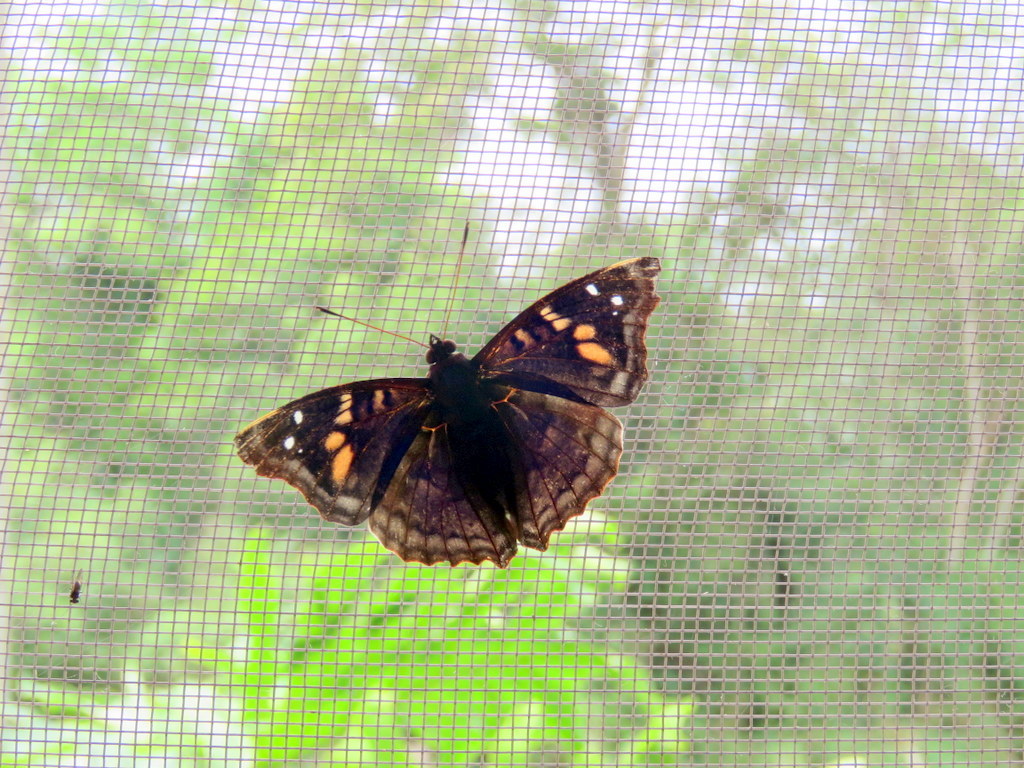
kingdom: Animalia
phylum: Arthropoda
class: Insecta
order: Lepidoptera
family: Nymphalidae
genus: Doxocopa
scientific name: Doxocopa agathina
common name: Agathina emperor
